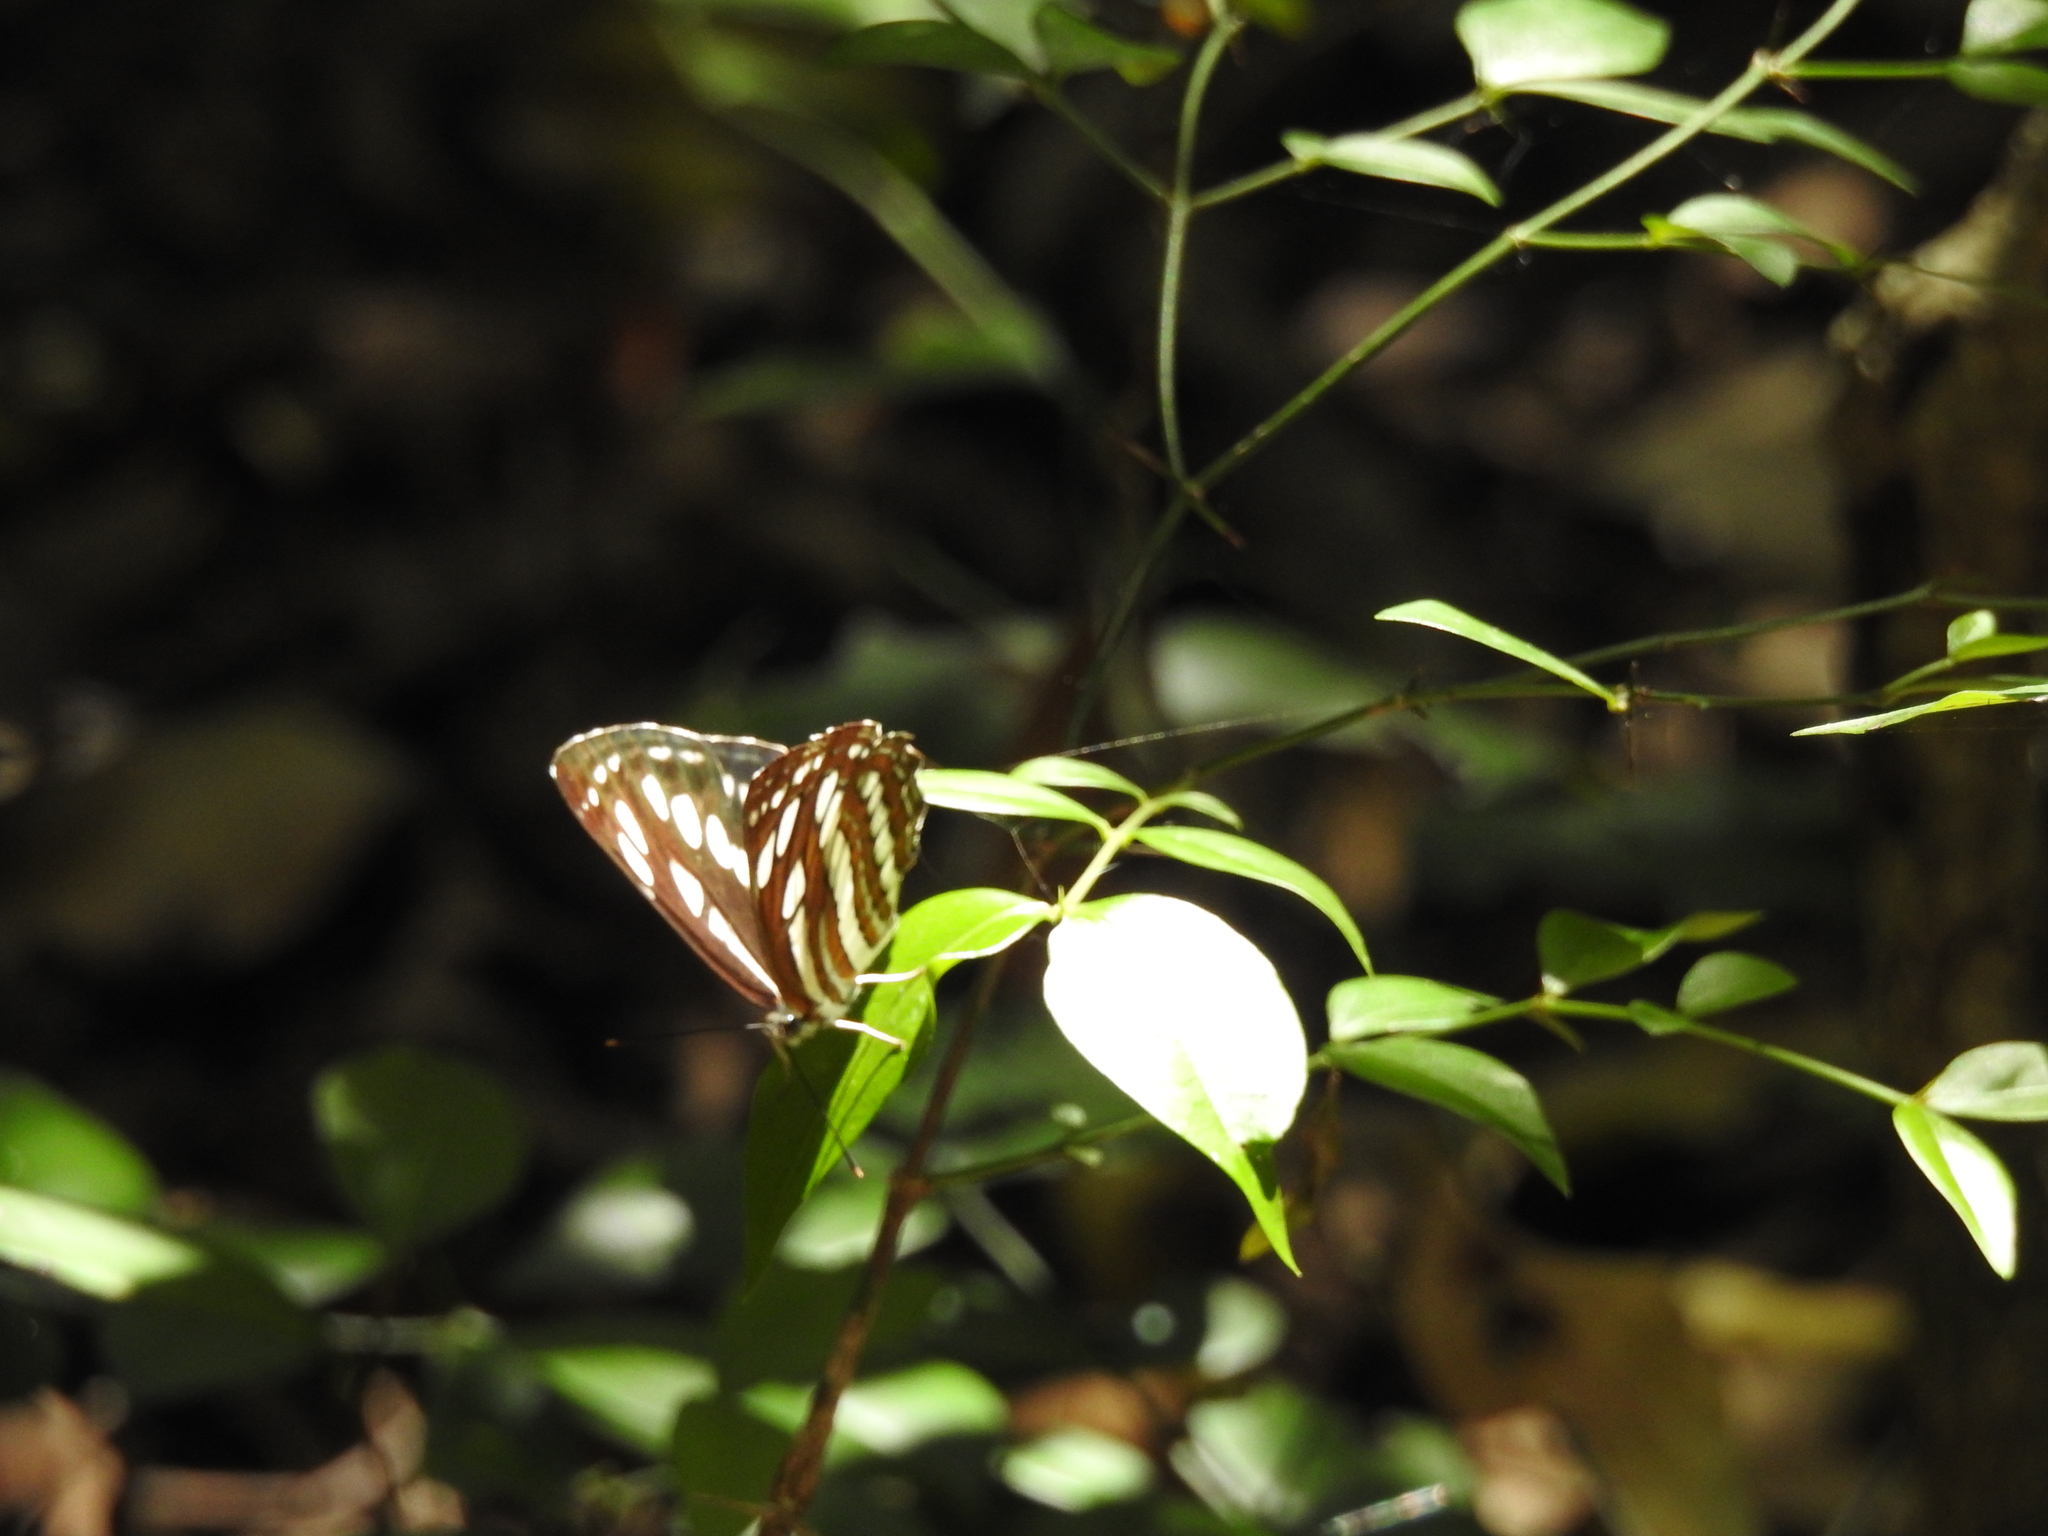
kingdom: Animalia
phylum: Arthropoda
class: Insecta
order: Lepidoptera
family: Nymphalidae
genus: Neptis
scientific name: Neptis hylas
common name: Common sailer
